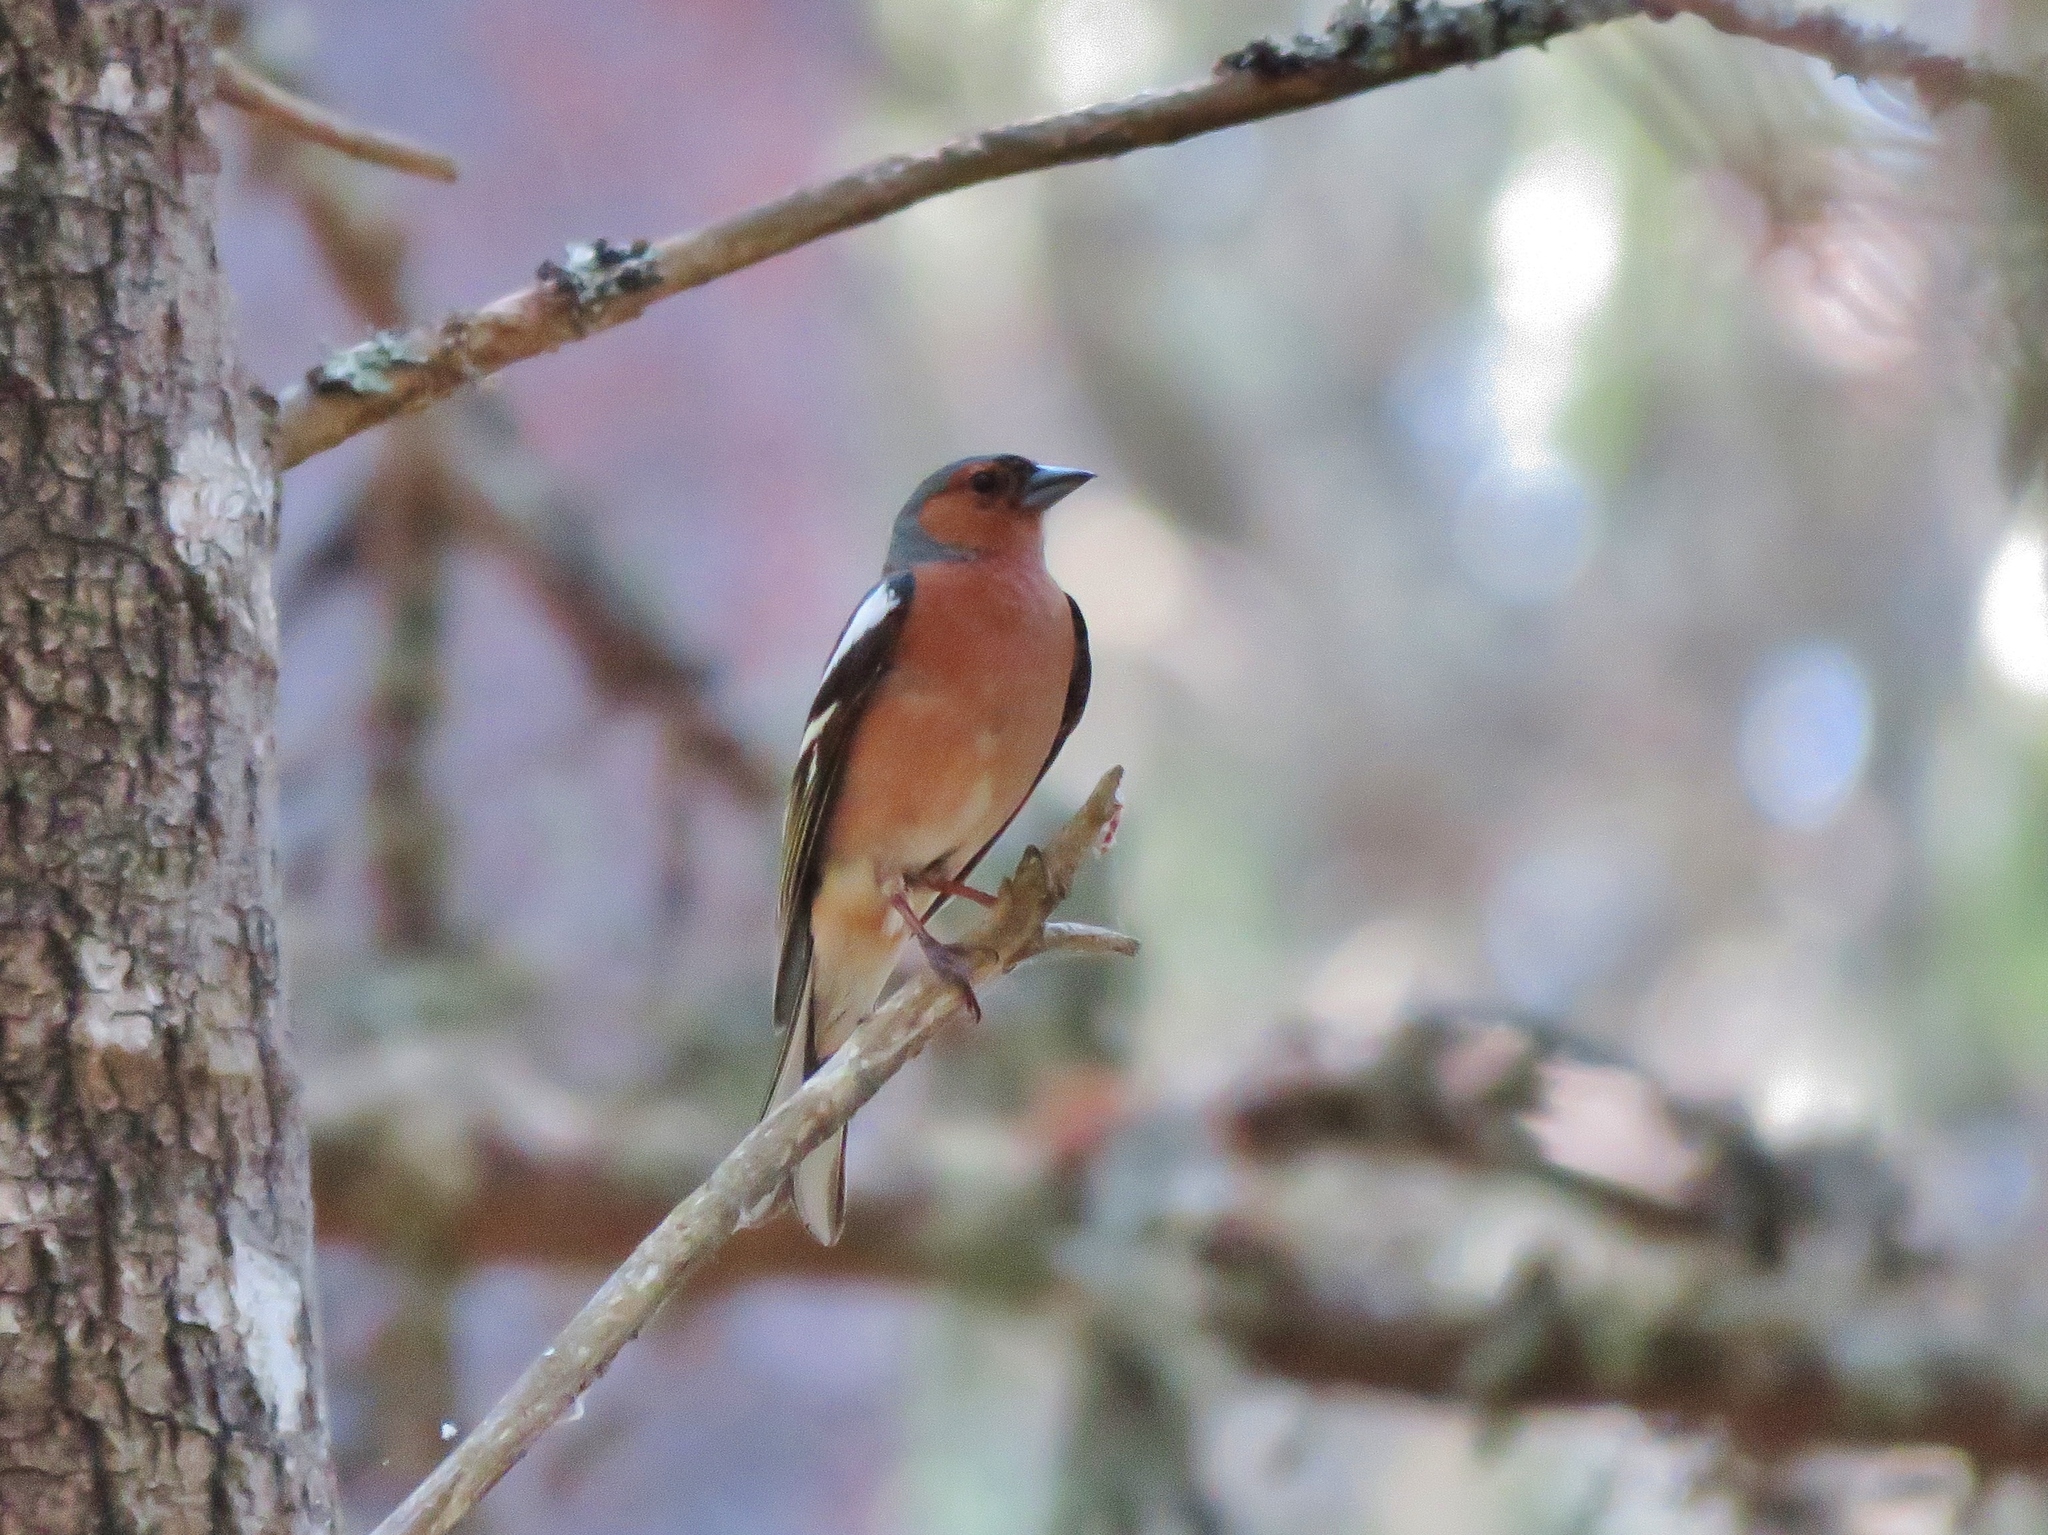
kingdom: Animalia
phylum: Chordata
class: Aves
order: Passeriformes
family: Fringillidae
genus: Fringilla
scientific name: Fringilla coelebs
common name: Common chaffinch
